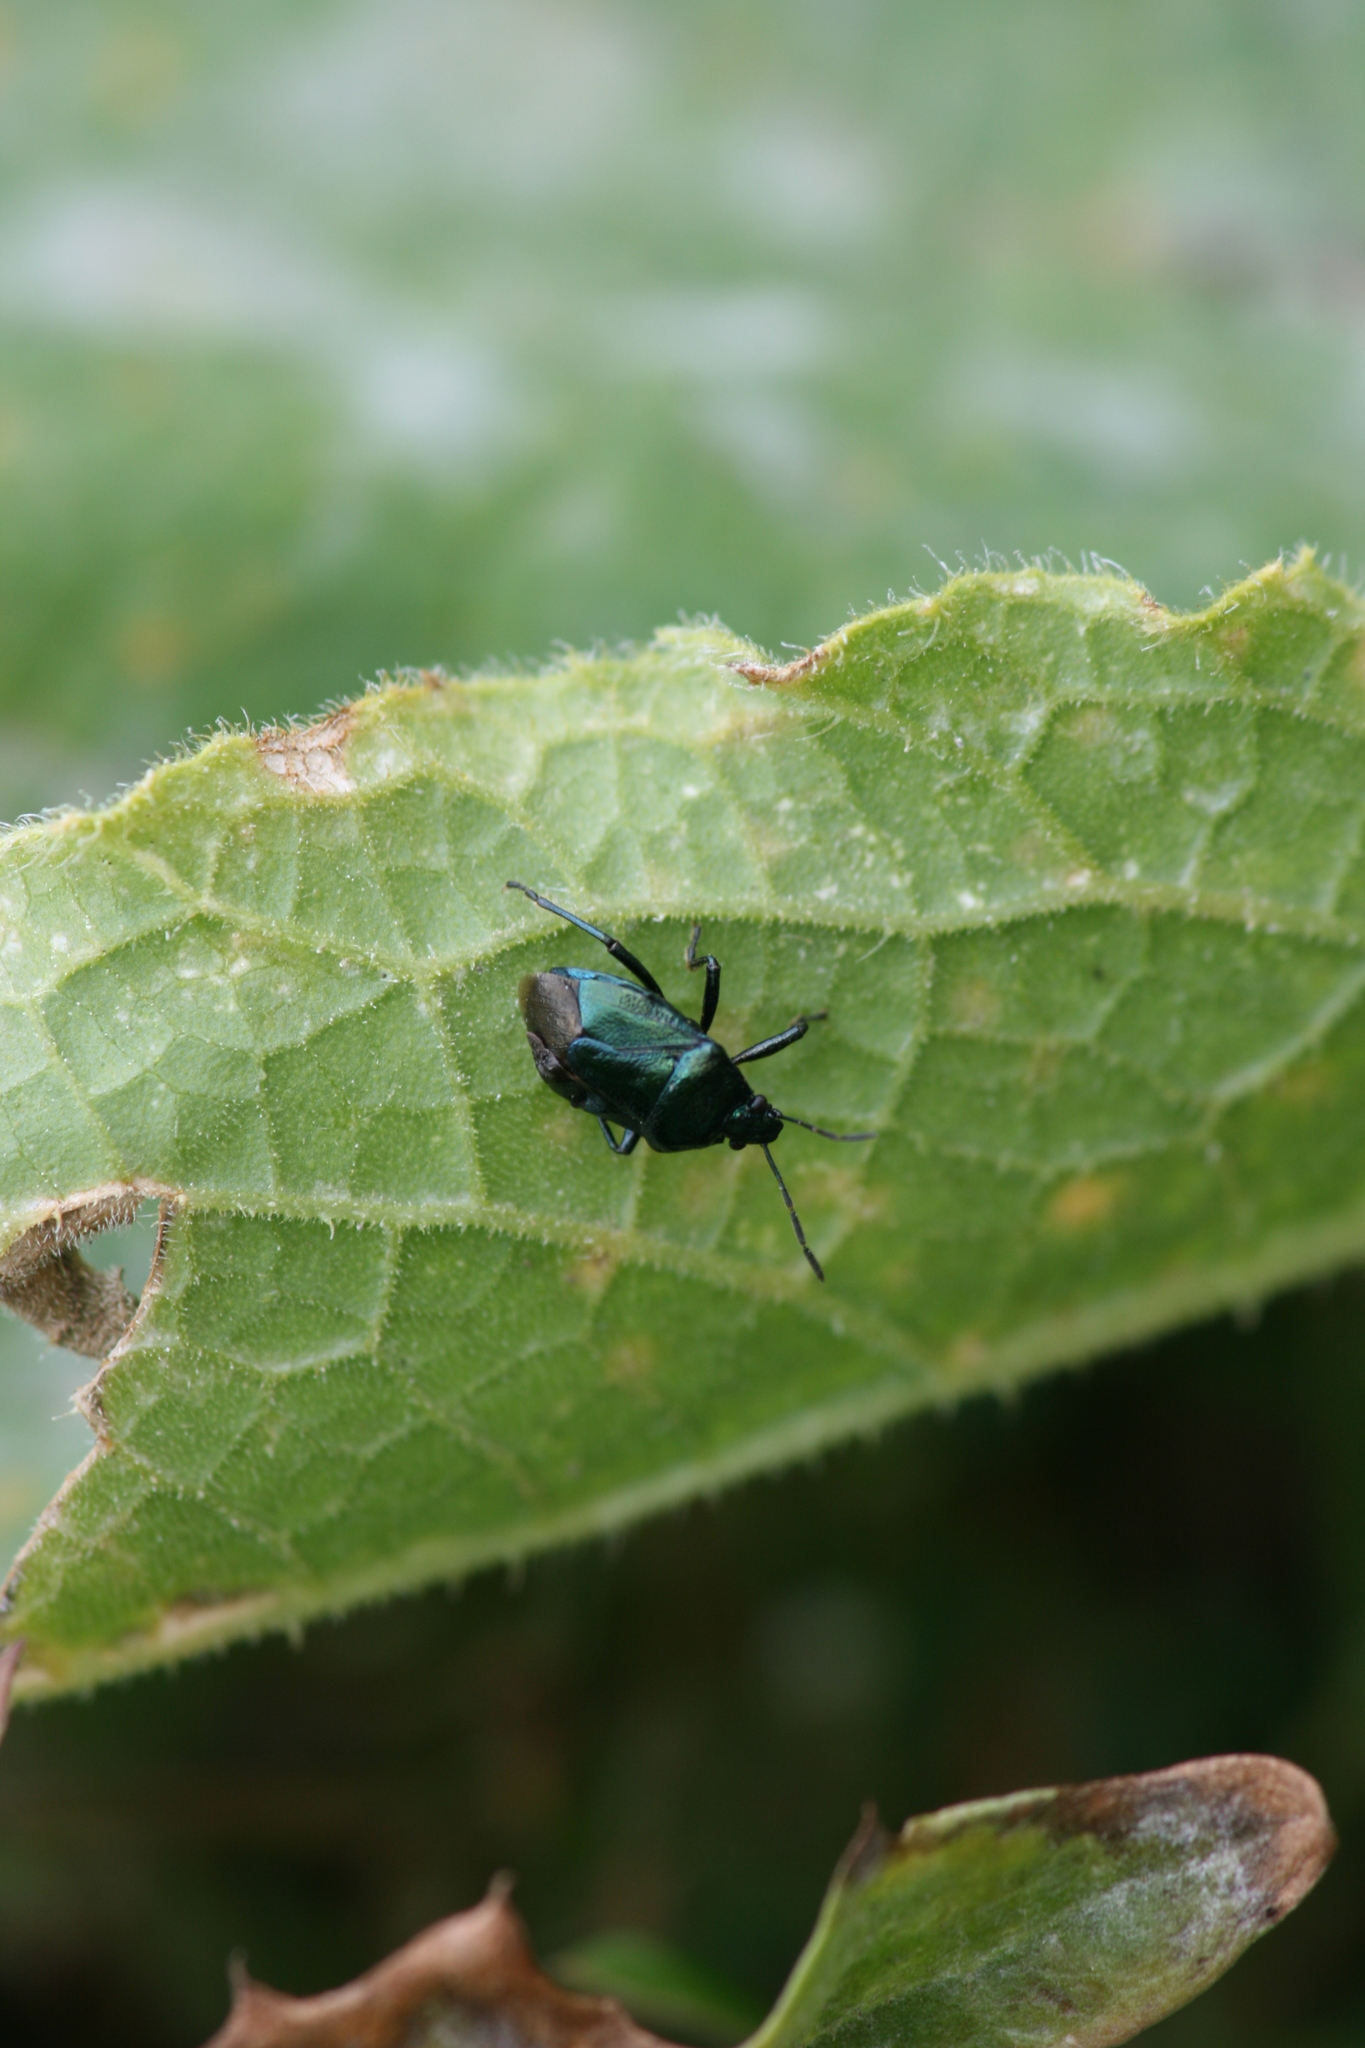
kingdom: Animalia
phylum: Arthropoda
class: Insecta
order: Hemiptera
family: Pentatomidae
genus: Zicrona
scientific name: Zicrona caerulea
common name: Blue shieldbug
